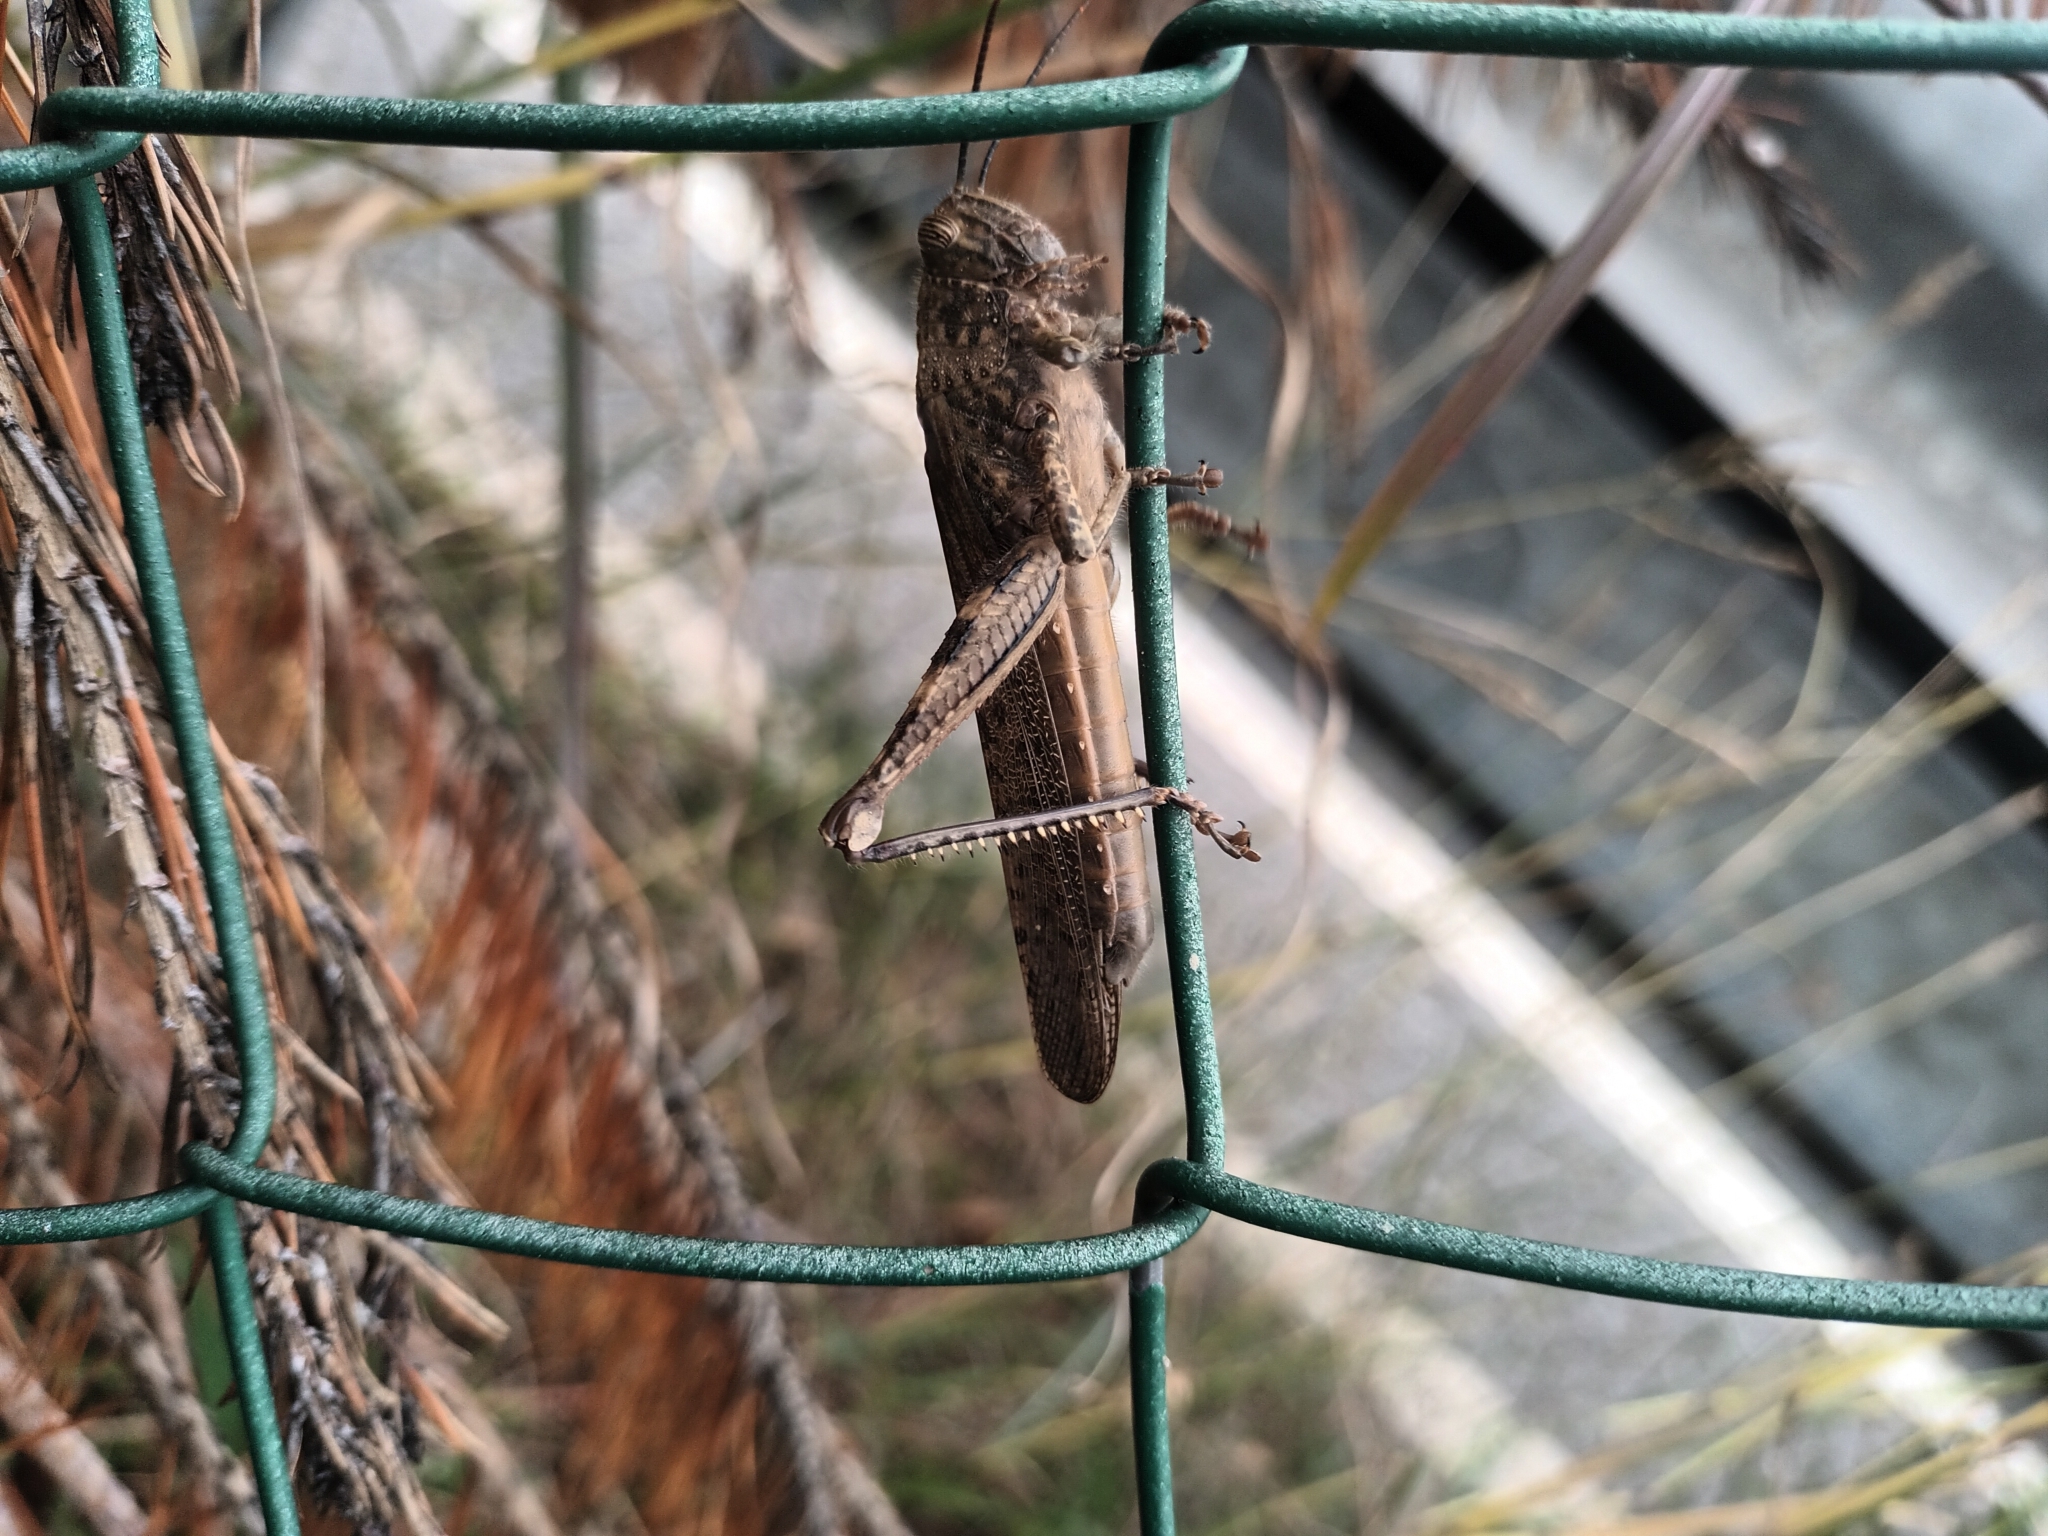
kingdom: Animalia
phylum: Arthropoda
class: Insecta
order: Orthoptera
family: Acrididae
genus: Anacridium
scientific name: Anacridium aegyptium
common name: Egyptian grasshopper
